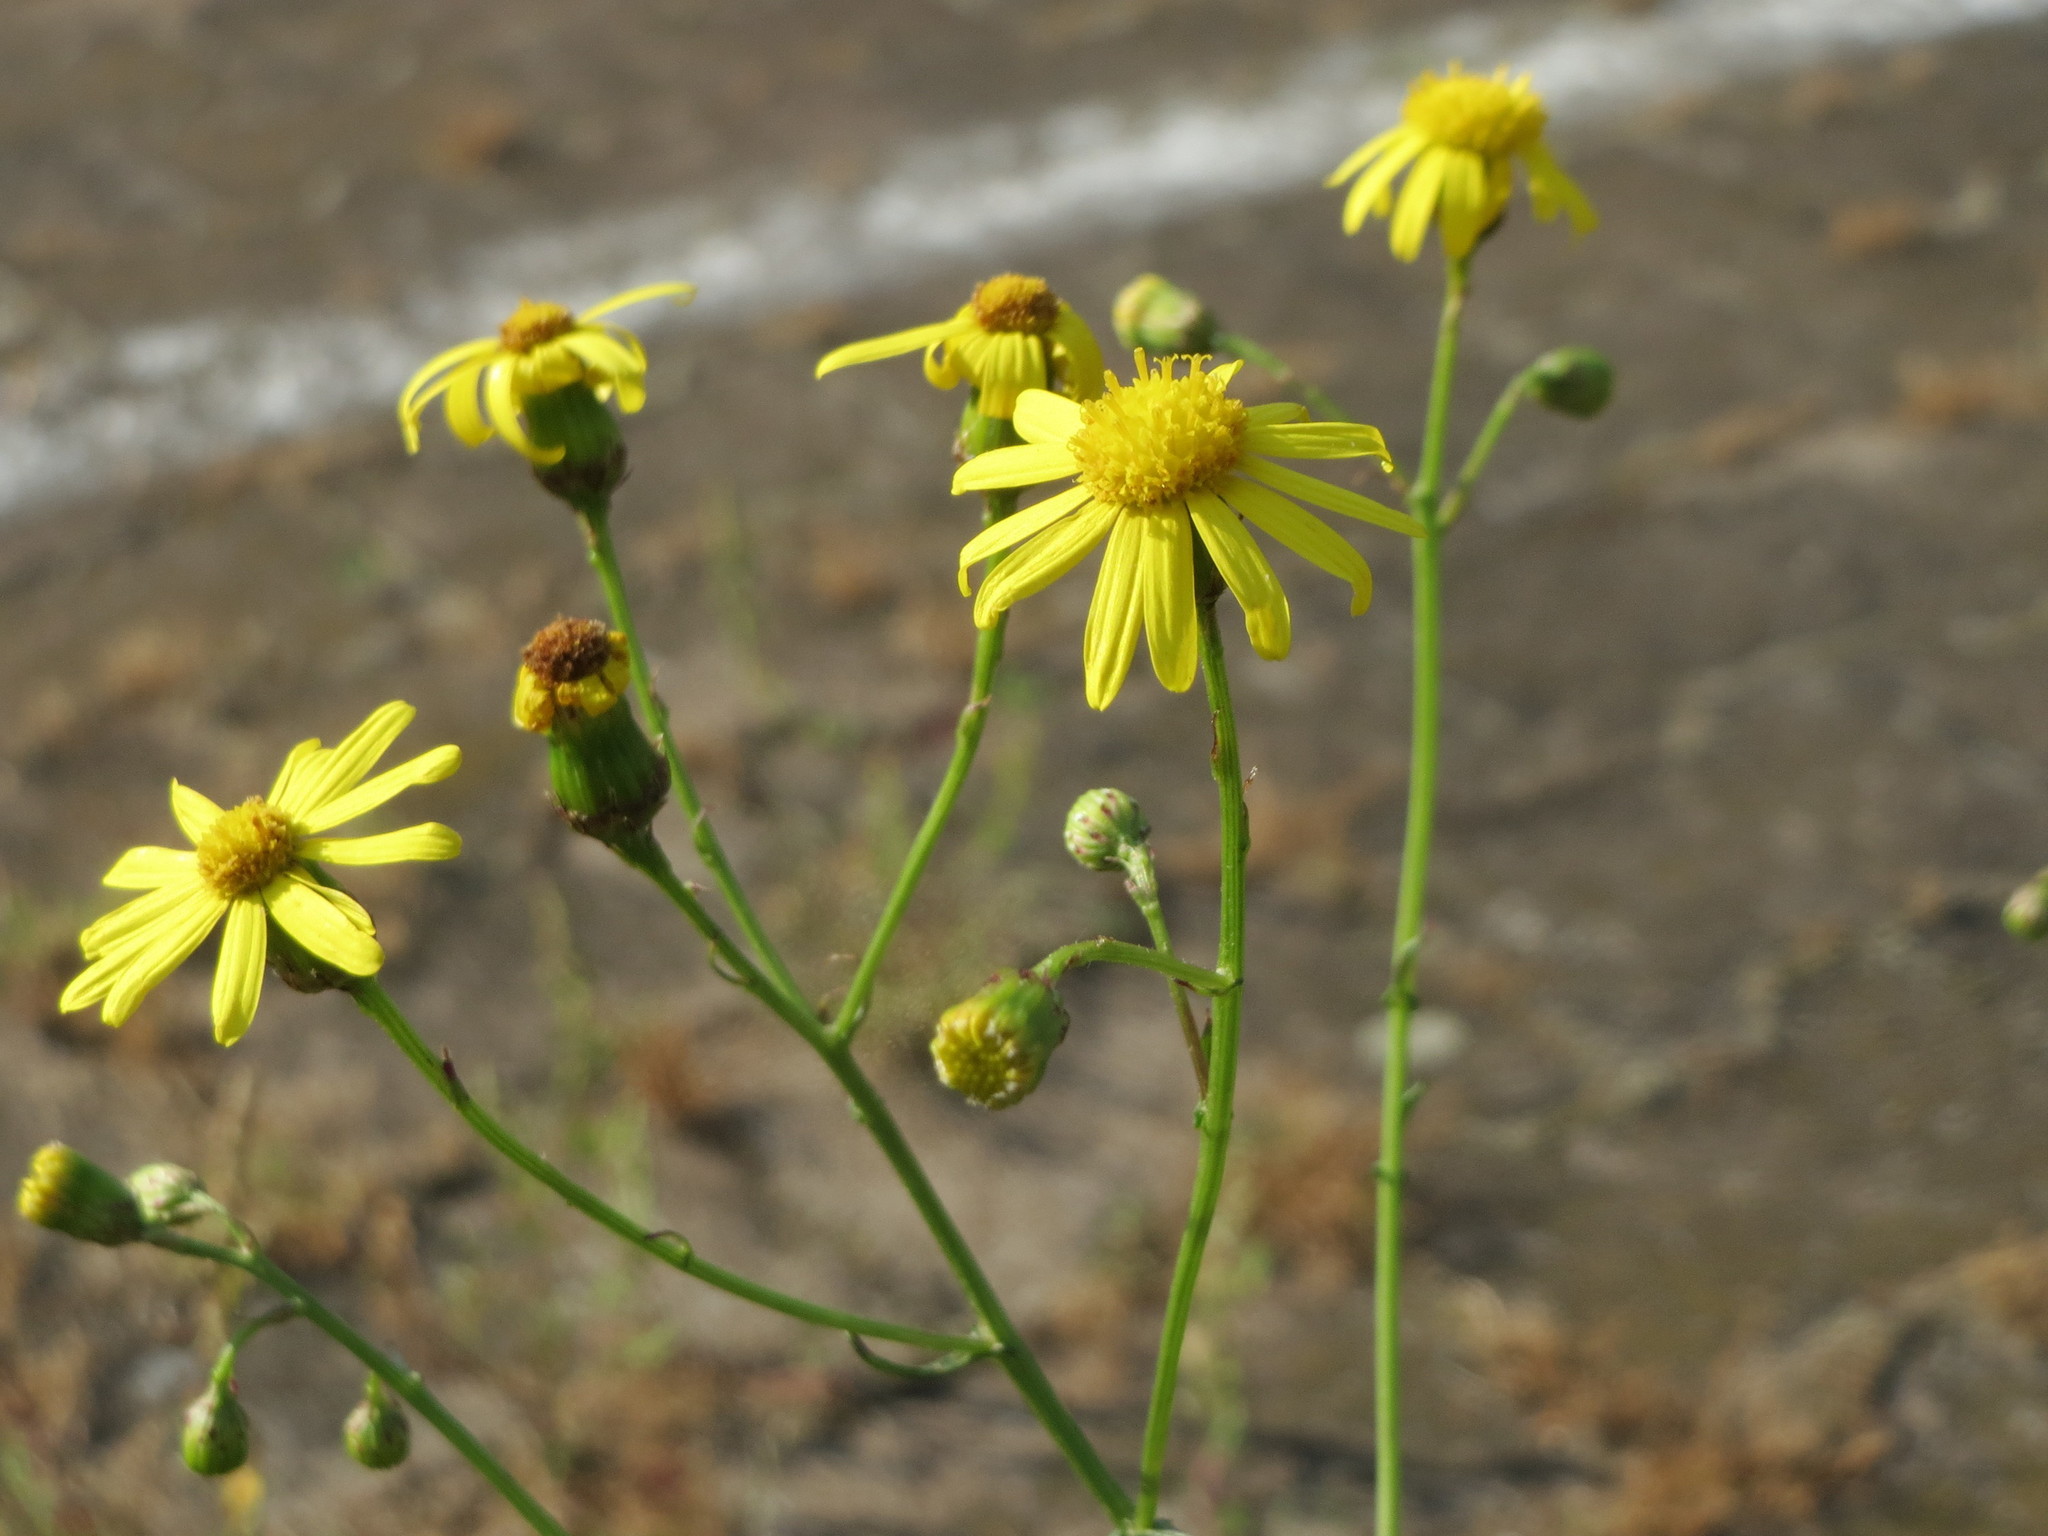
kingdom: Plantae
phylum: Tracheophyta
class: Magnoliopsida
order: Asterales
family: Asteraceae
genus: Senecio
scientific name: Senecio inaequidens
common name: Narrow-leaved ragwort
